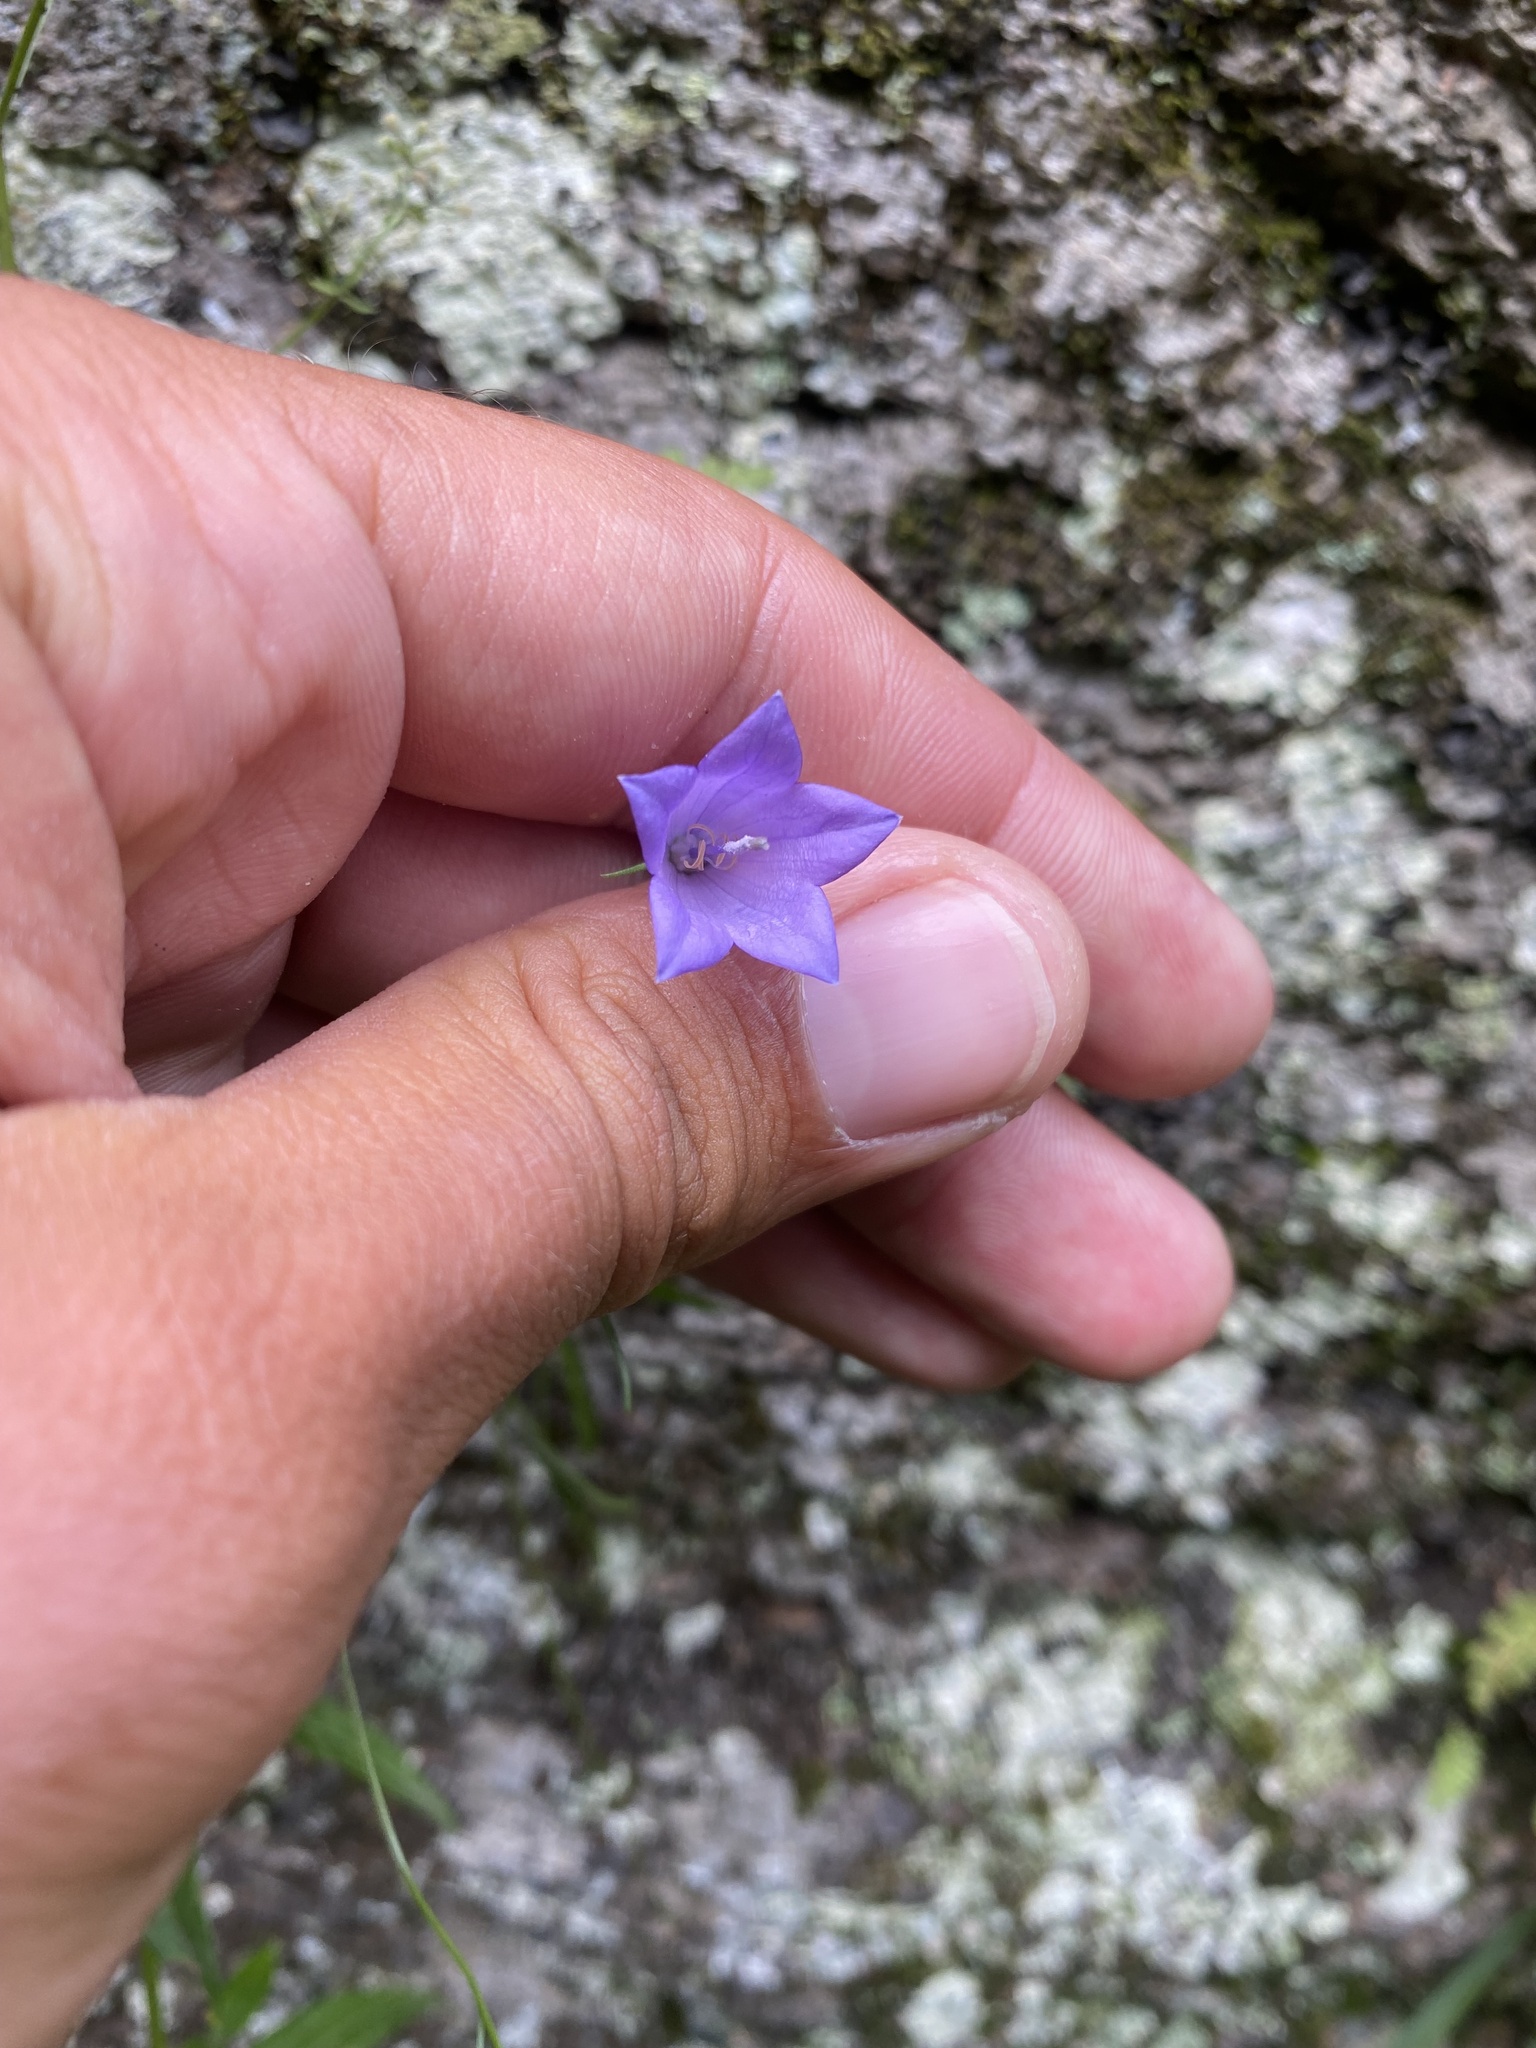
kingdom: Plantae
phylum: Tracheophyta
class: Magnoliopsida
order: Asterales
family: Campanulaceae
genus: Campanula
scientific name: Campanula rotundifolia
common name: Harebell
